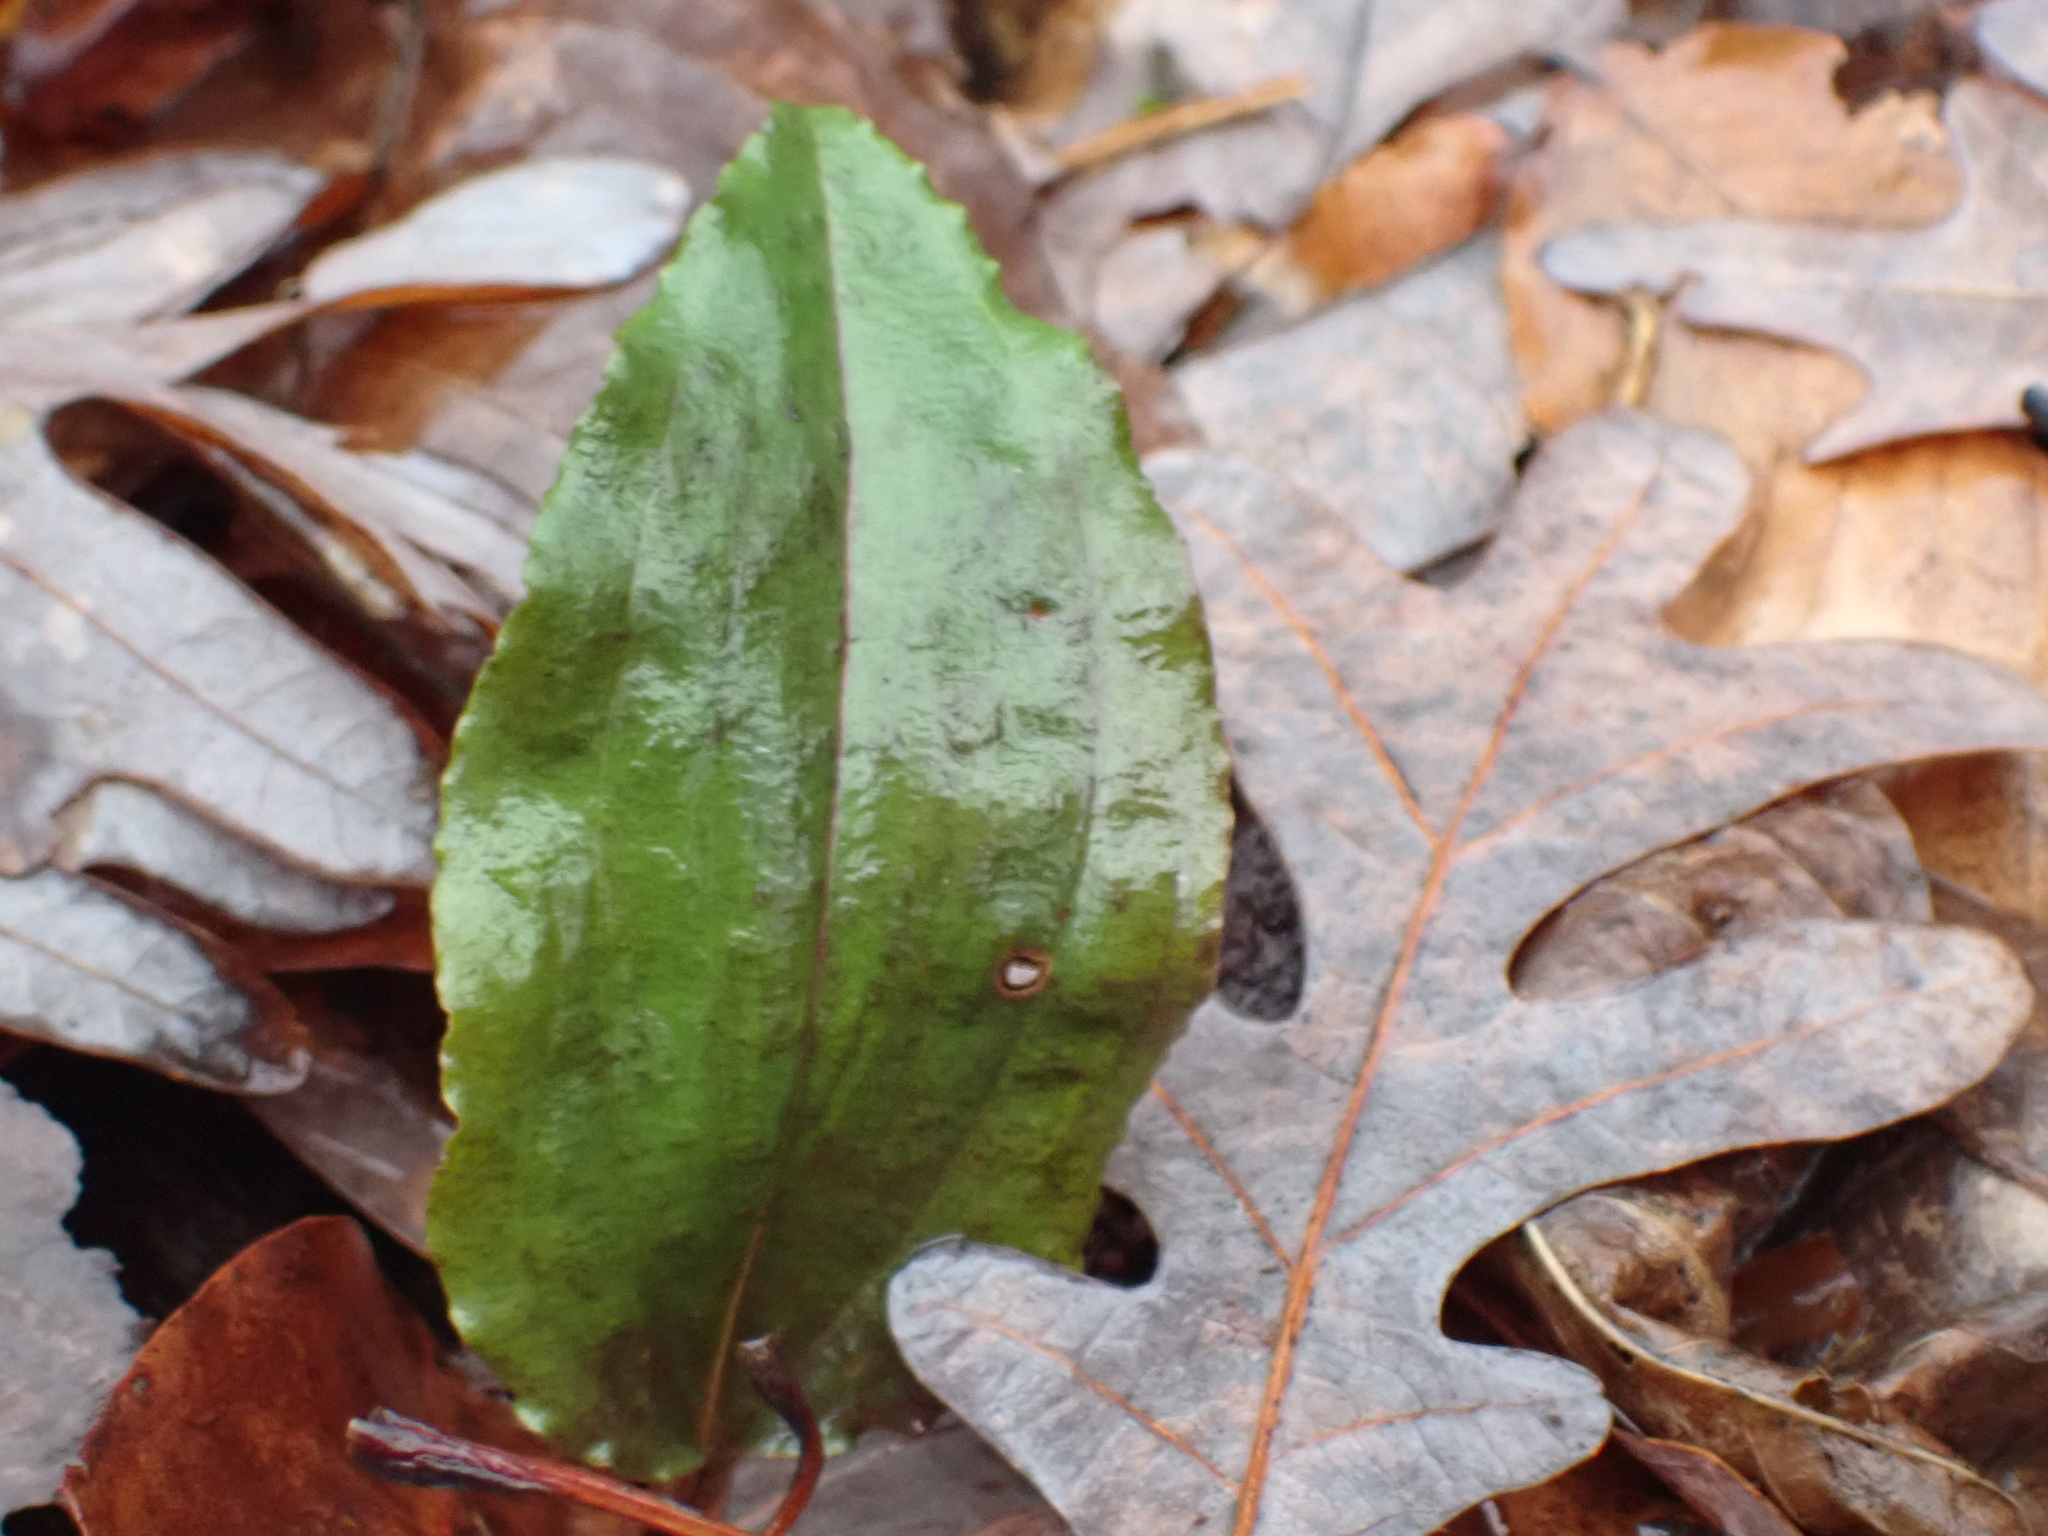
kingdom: Plantae
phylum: Tracheophyta
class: Liliopsida
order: Asparagales
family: Orchidaceae
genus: Tipularia
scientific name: Tipularia discolor
